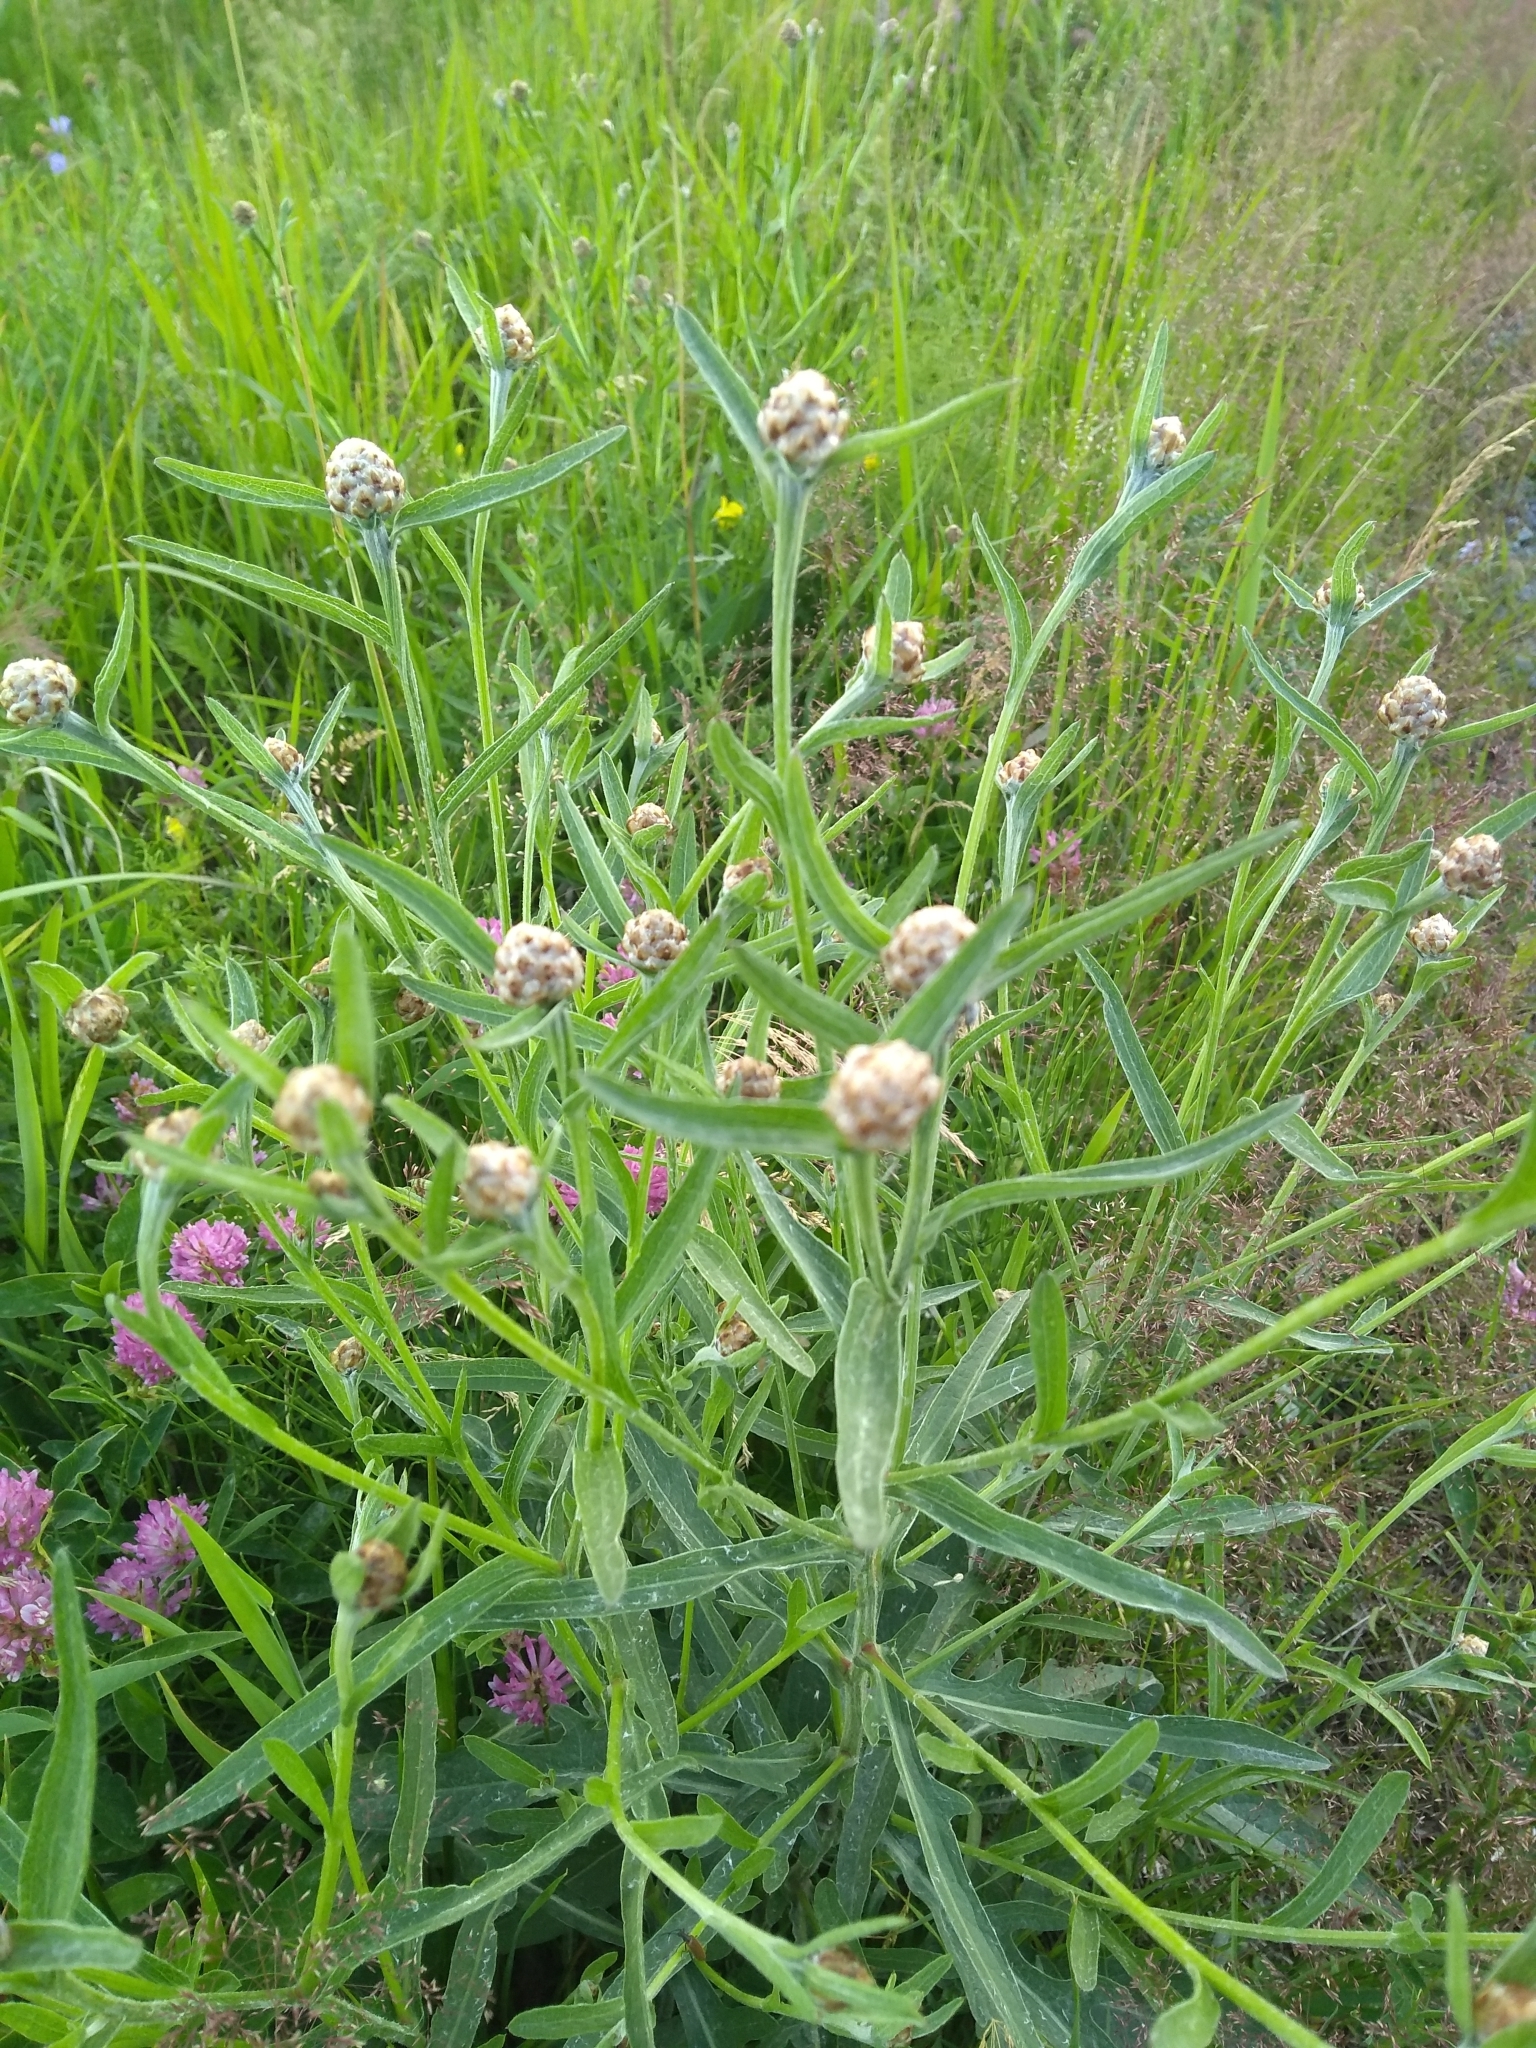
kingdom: Plantae
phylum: Tracheophyta
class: Magnoliopsida
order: Asterales
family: Asteraceae
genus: Centaurea
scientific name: Centaurea jacea
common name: Brown knapweed
